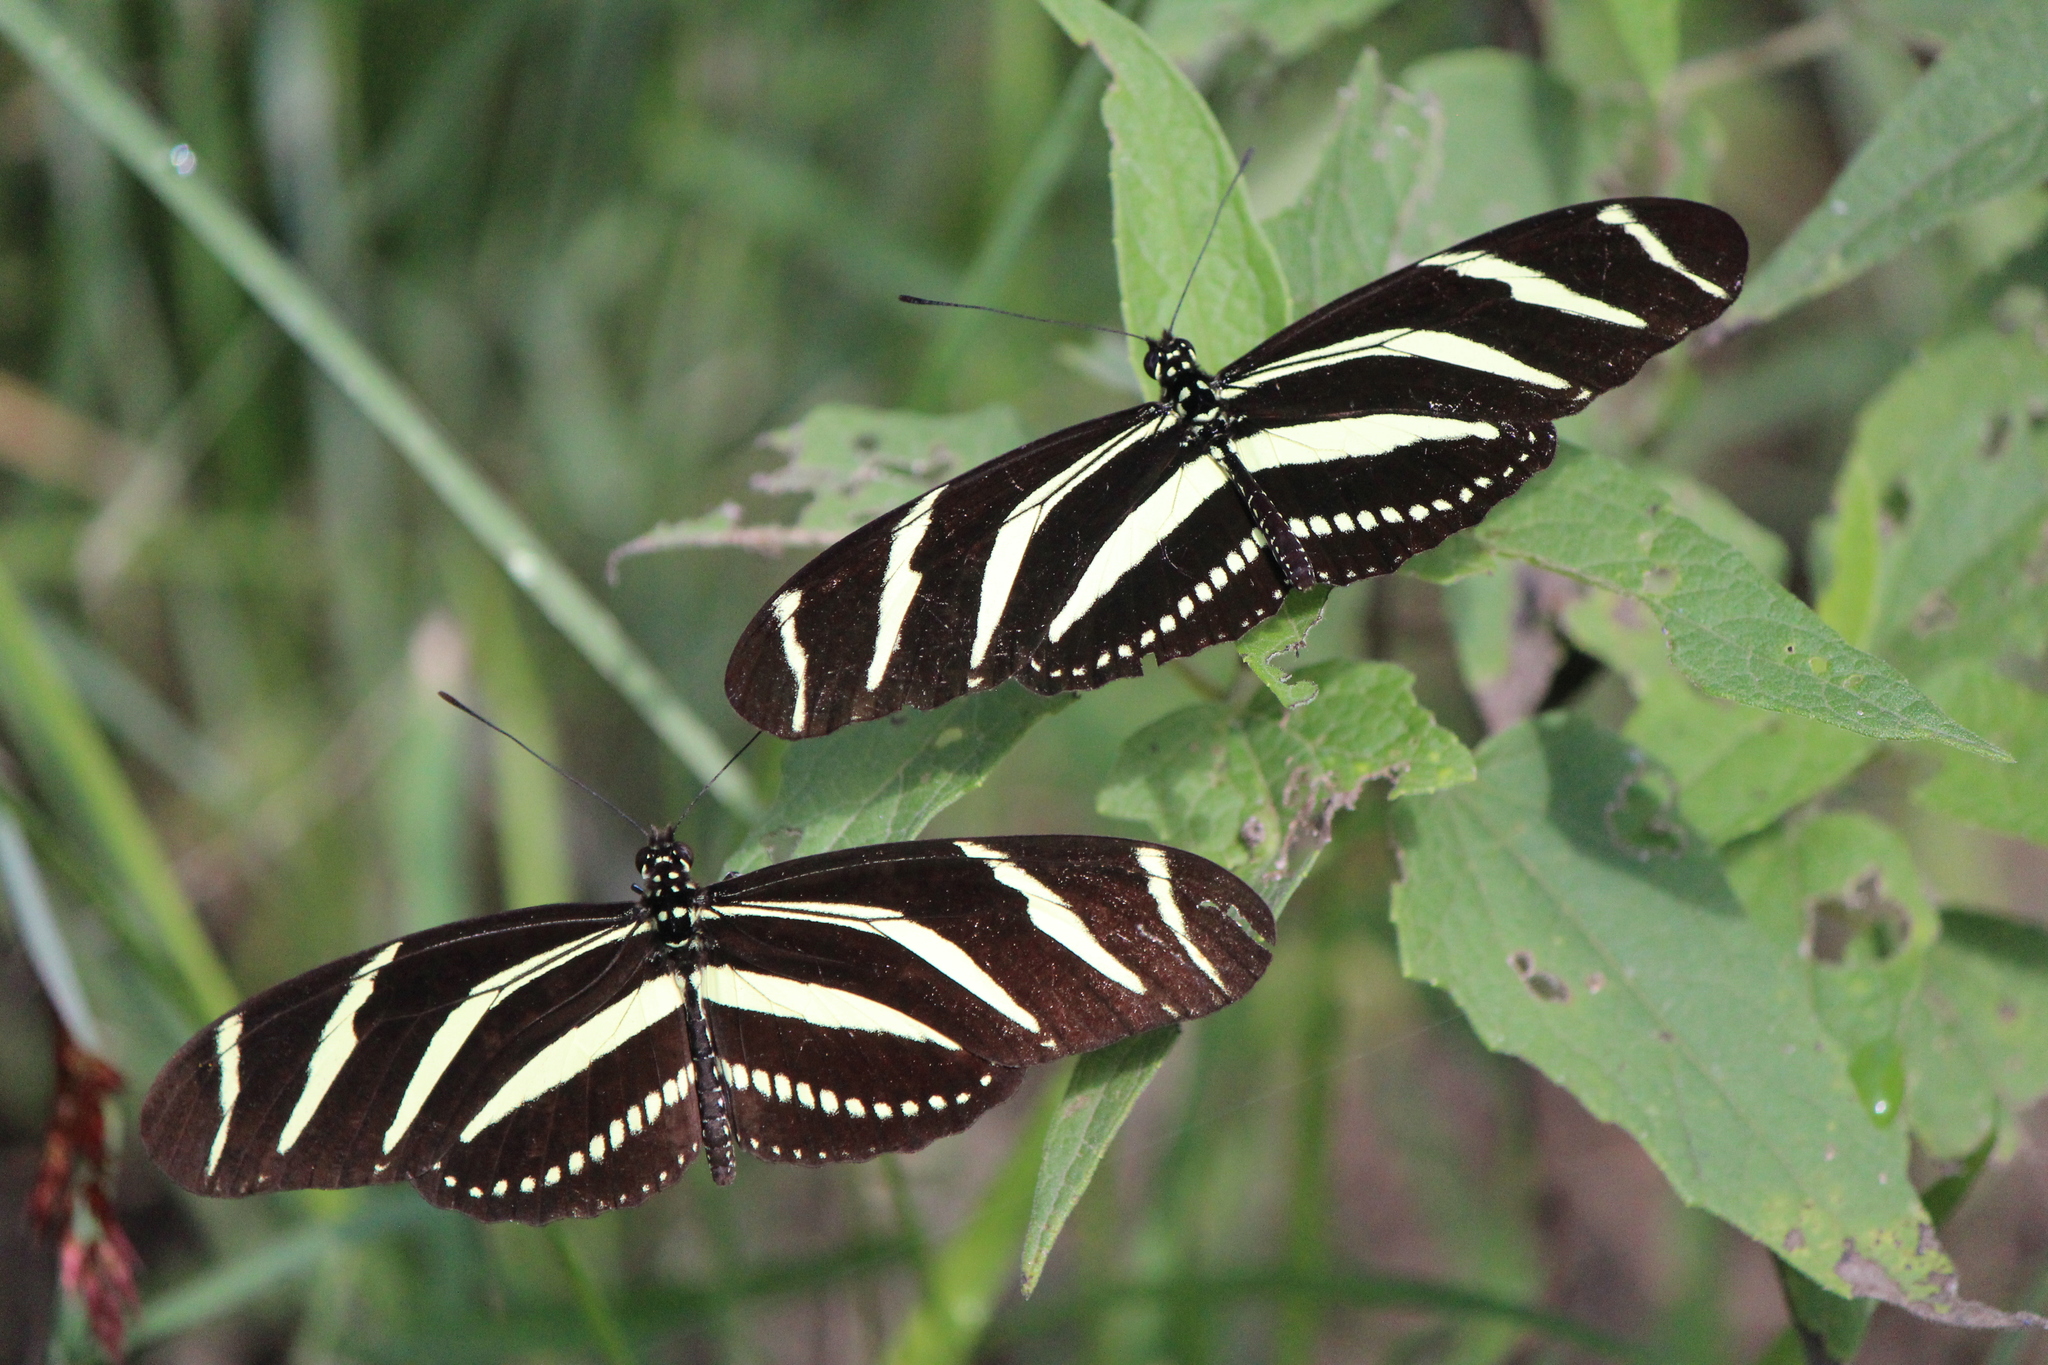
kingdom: Animalia
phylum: Arthropoda
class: Insecta
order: Lepidoptera
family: Nymphalidae
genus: Heliconius
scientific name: Heliconius charithonia
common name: Zebra long wing
